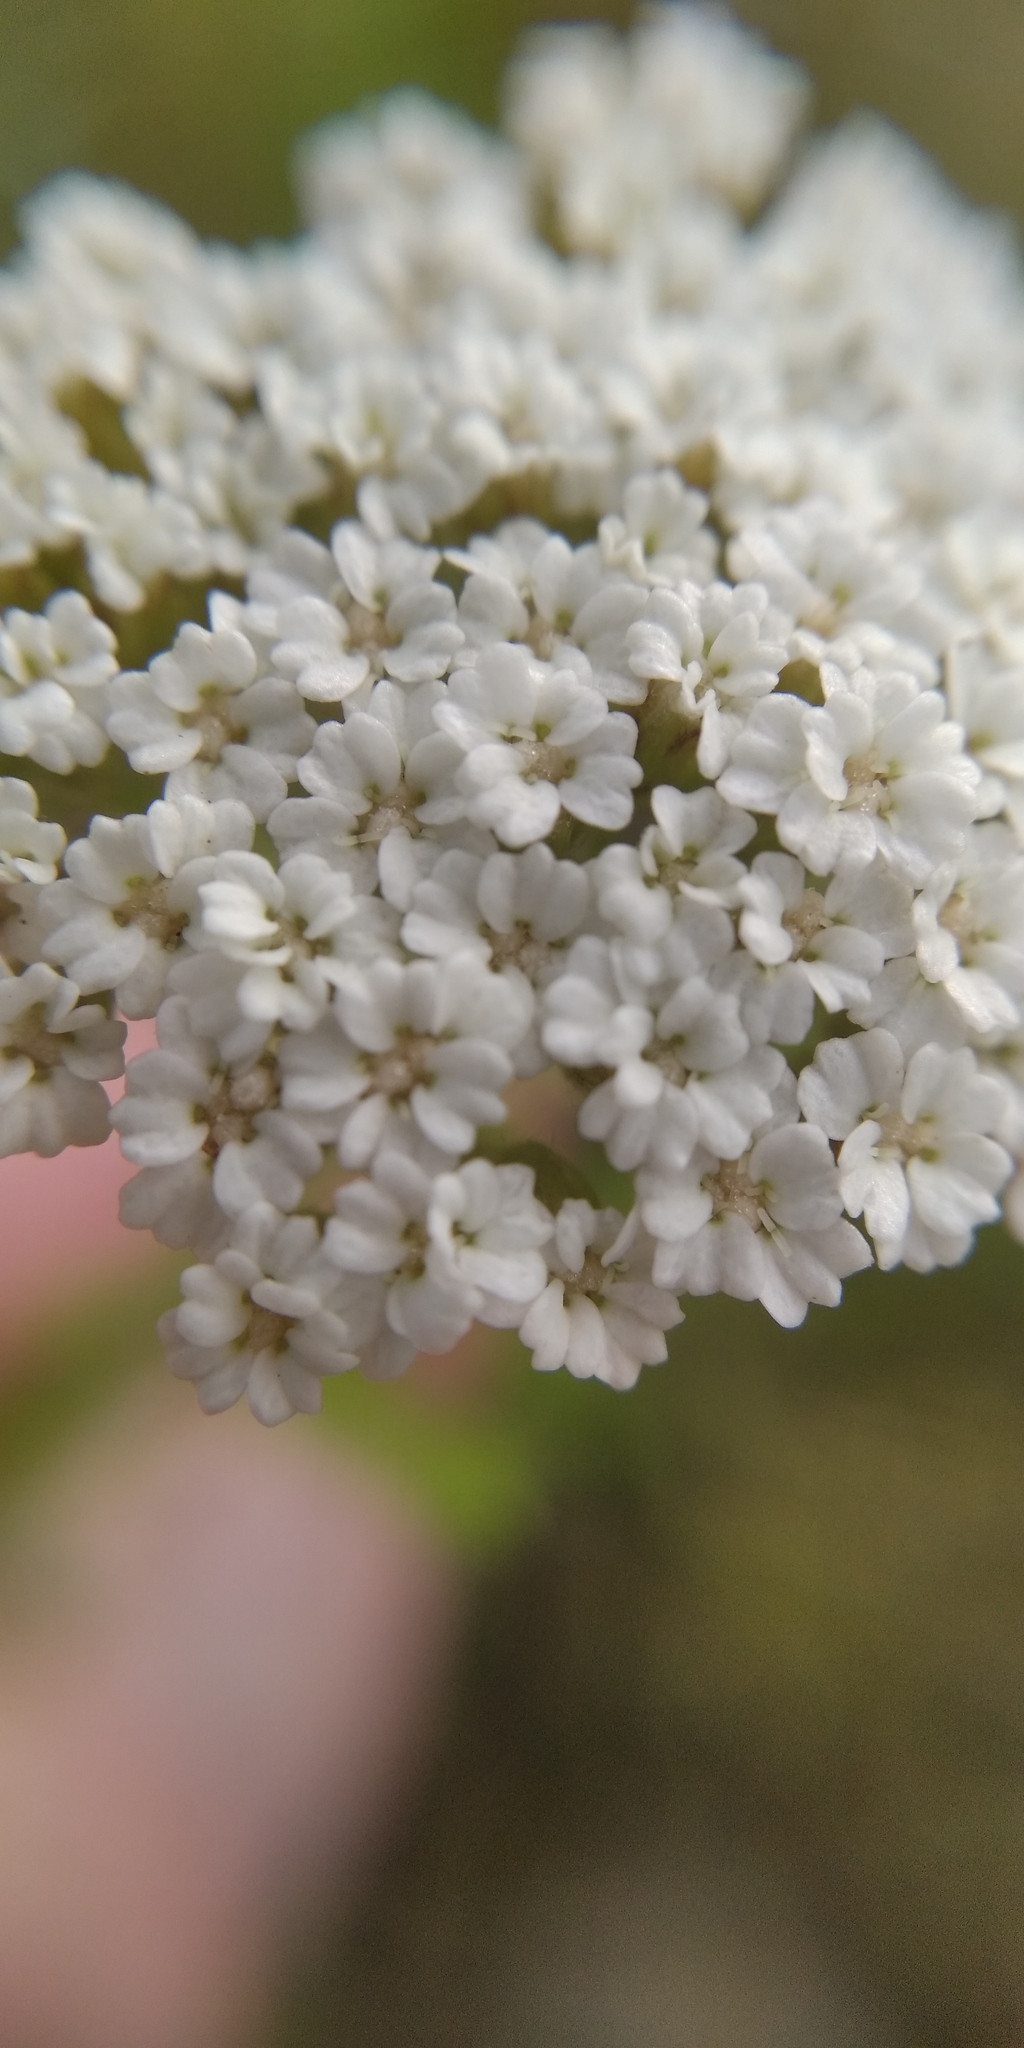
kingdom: Plantae
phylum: Tracheophyta
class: Magnoliopsida
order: Asterales
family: Asteraceae
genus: Achillea
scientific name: Achillea setacea
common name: Bristly yarrow
